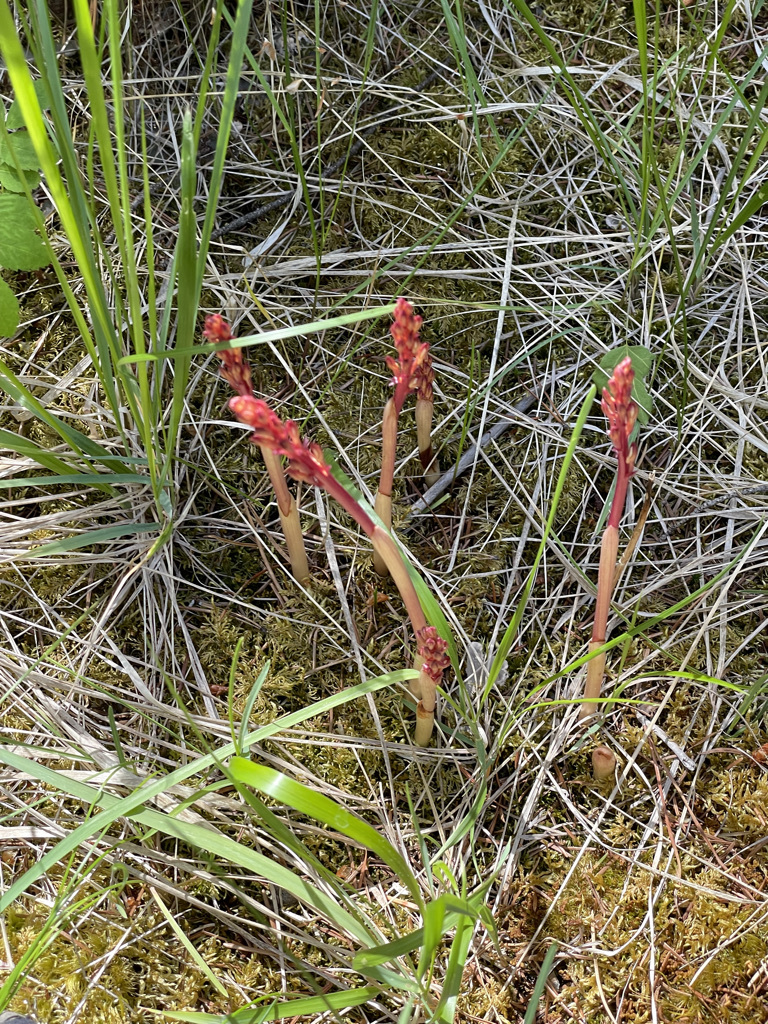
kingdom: Plantae
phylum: Tracheophyta
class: Liliopsida
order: Asparagales
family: Orchidaceae
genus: Corallorhiza
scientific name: Corallorhiza maculata
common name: Spotted coralroot
